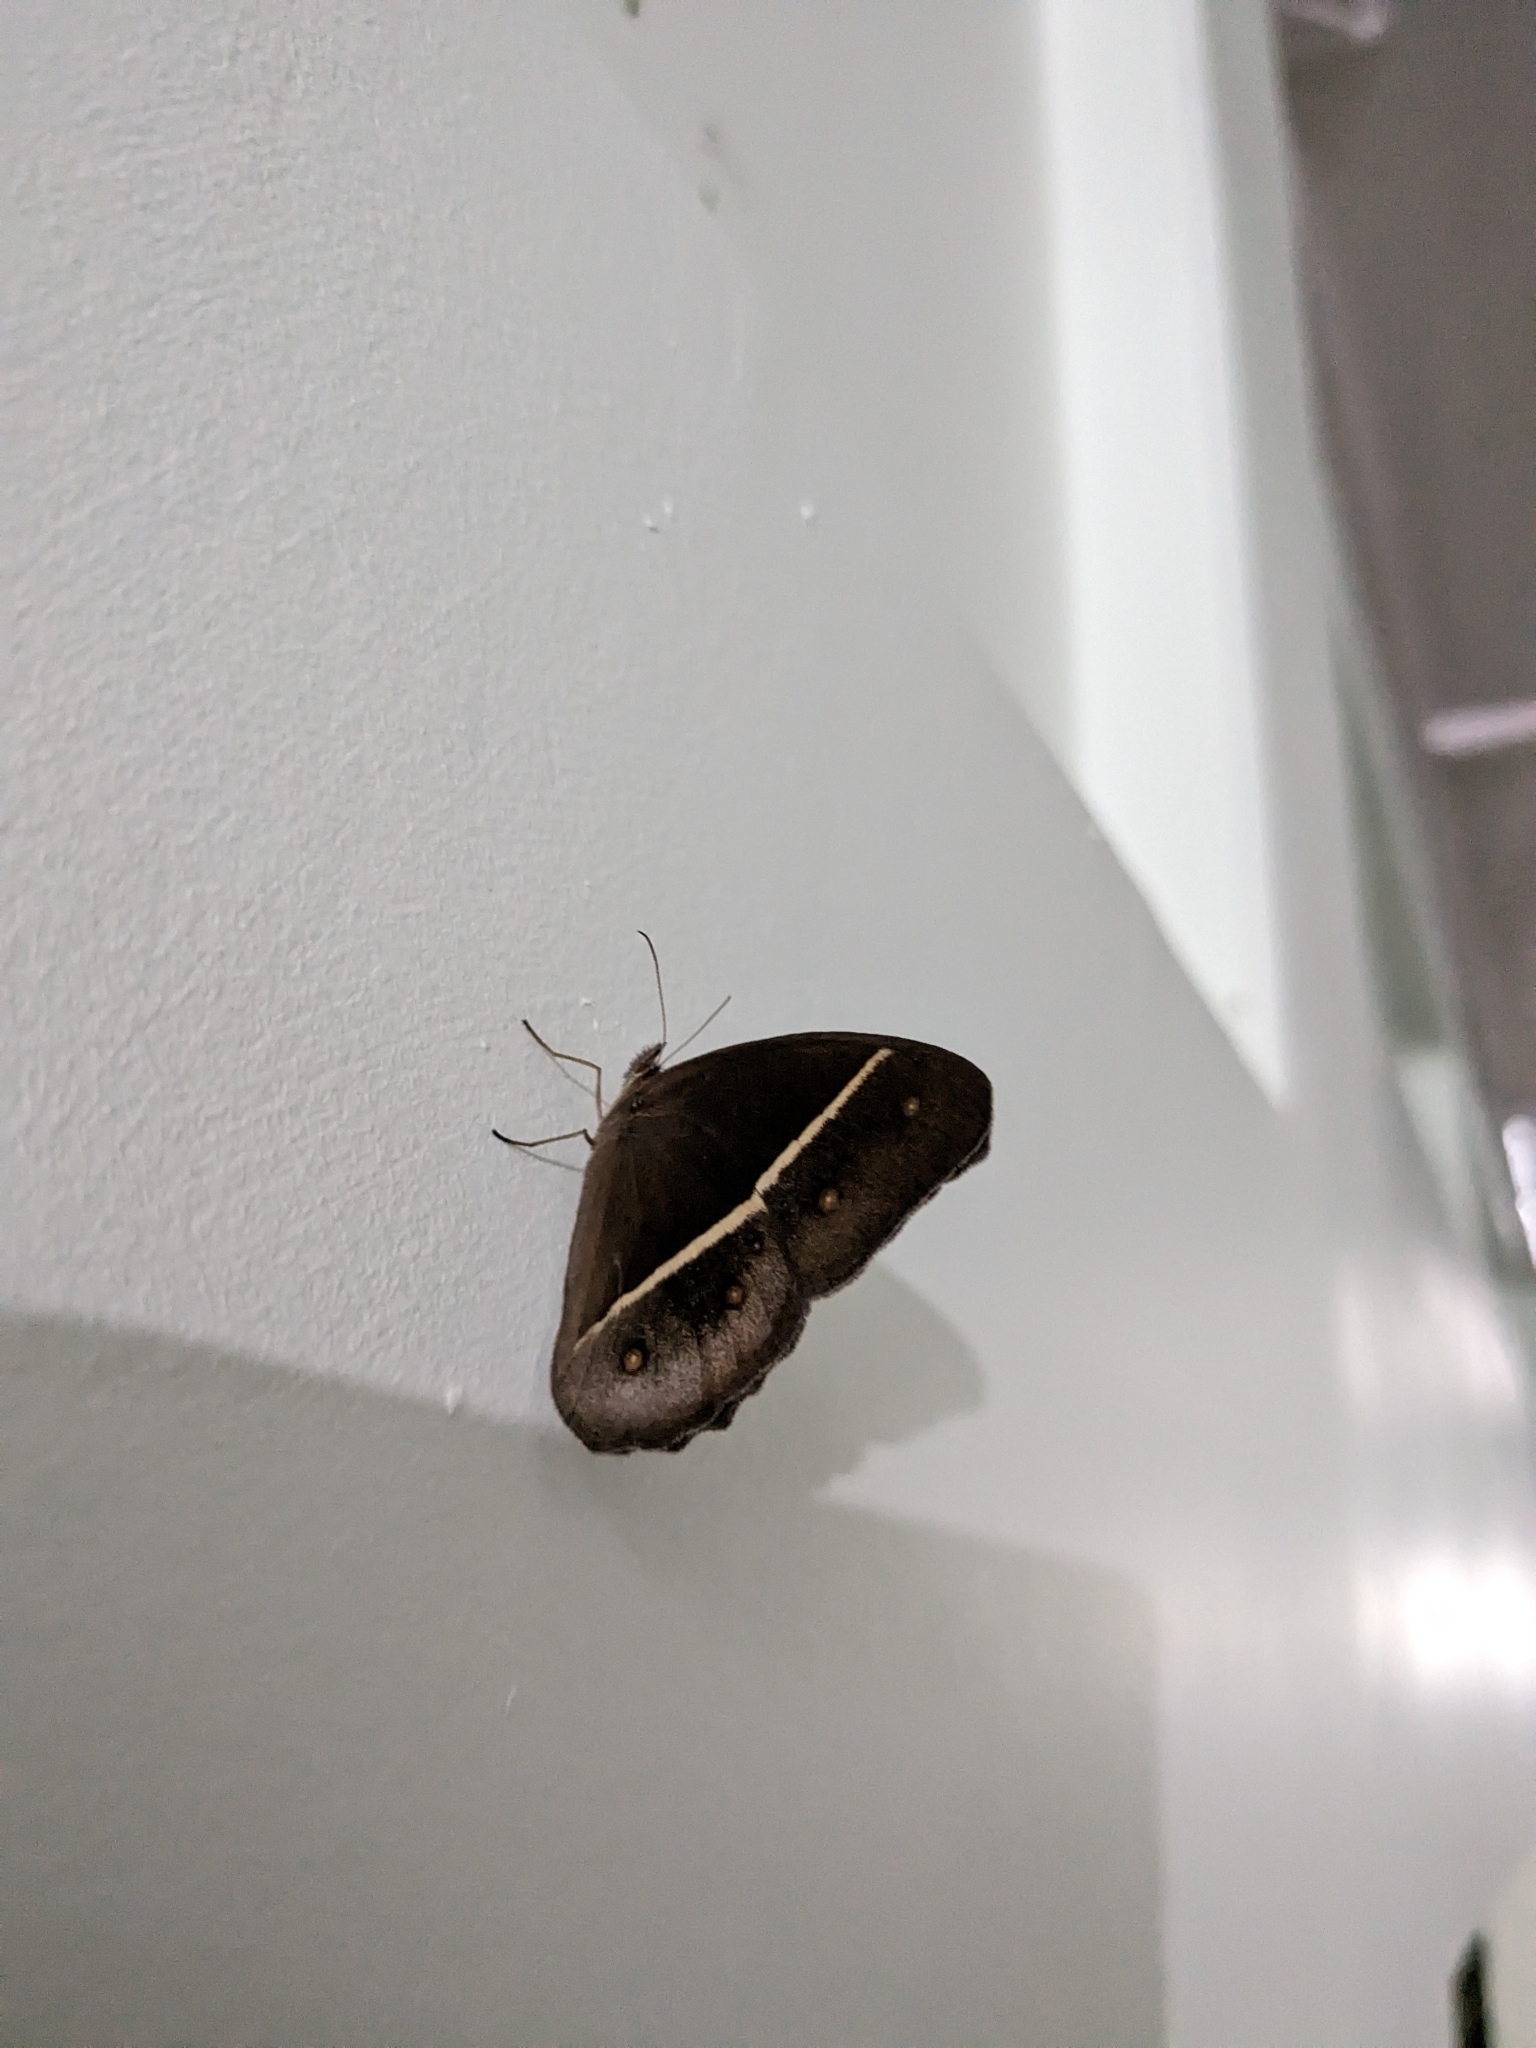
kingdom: Animalia
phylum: Arthropoda
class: Insecta
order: Lepidoptera
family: Nymphalidae
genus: Orsotriaena
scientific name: Orsotriaena medus
